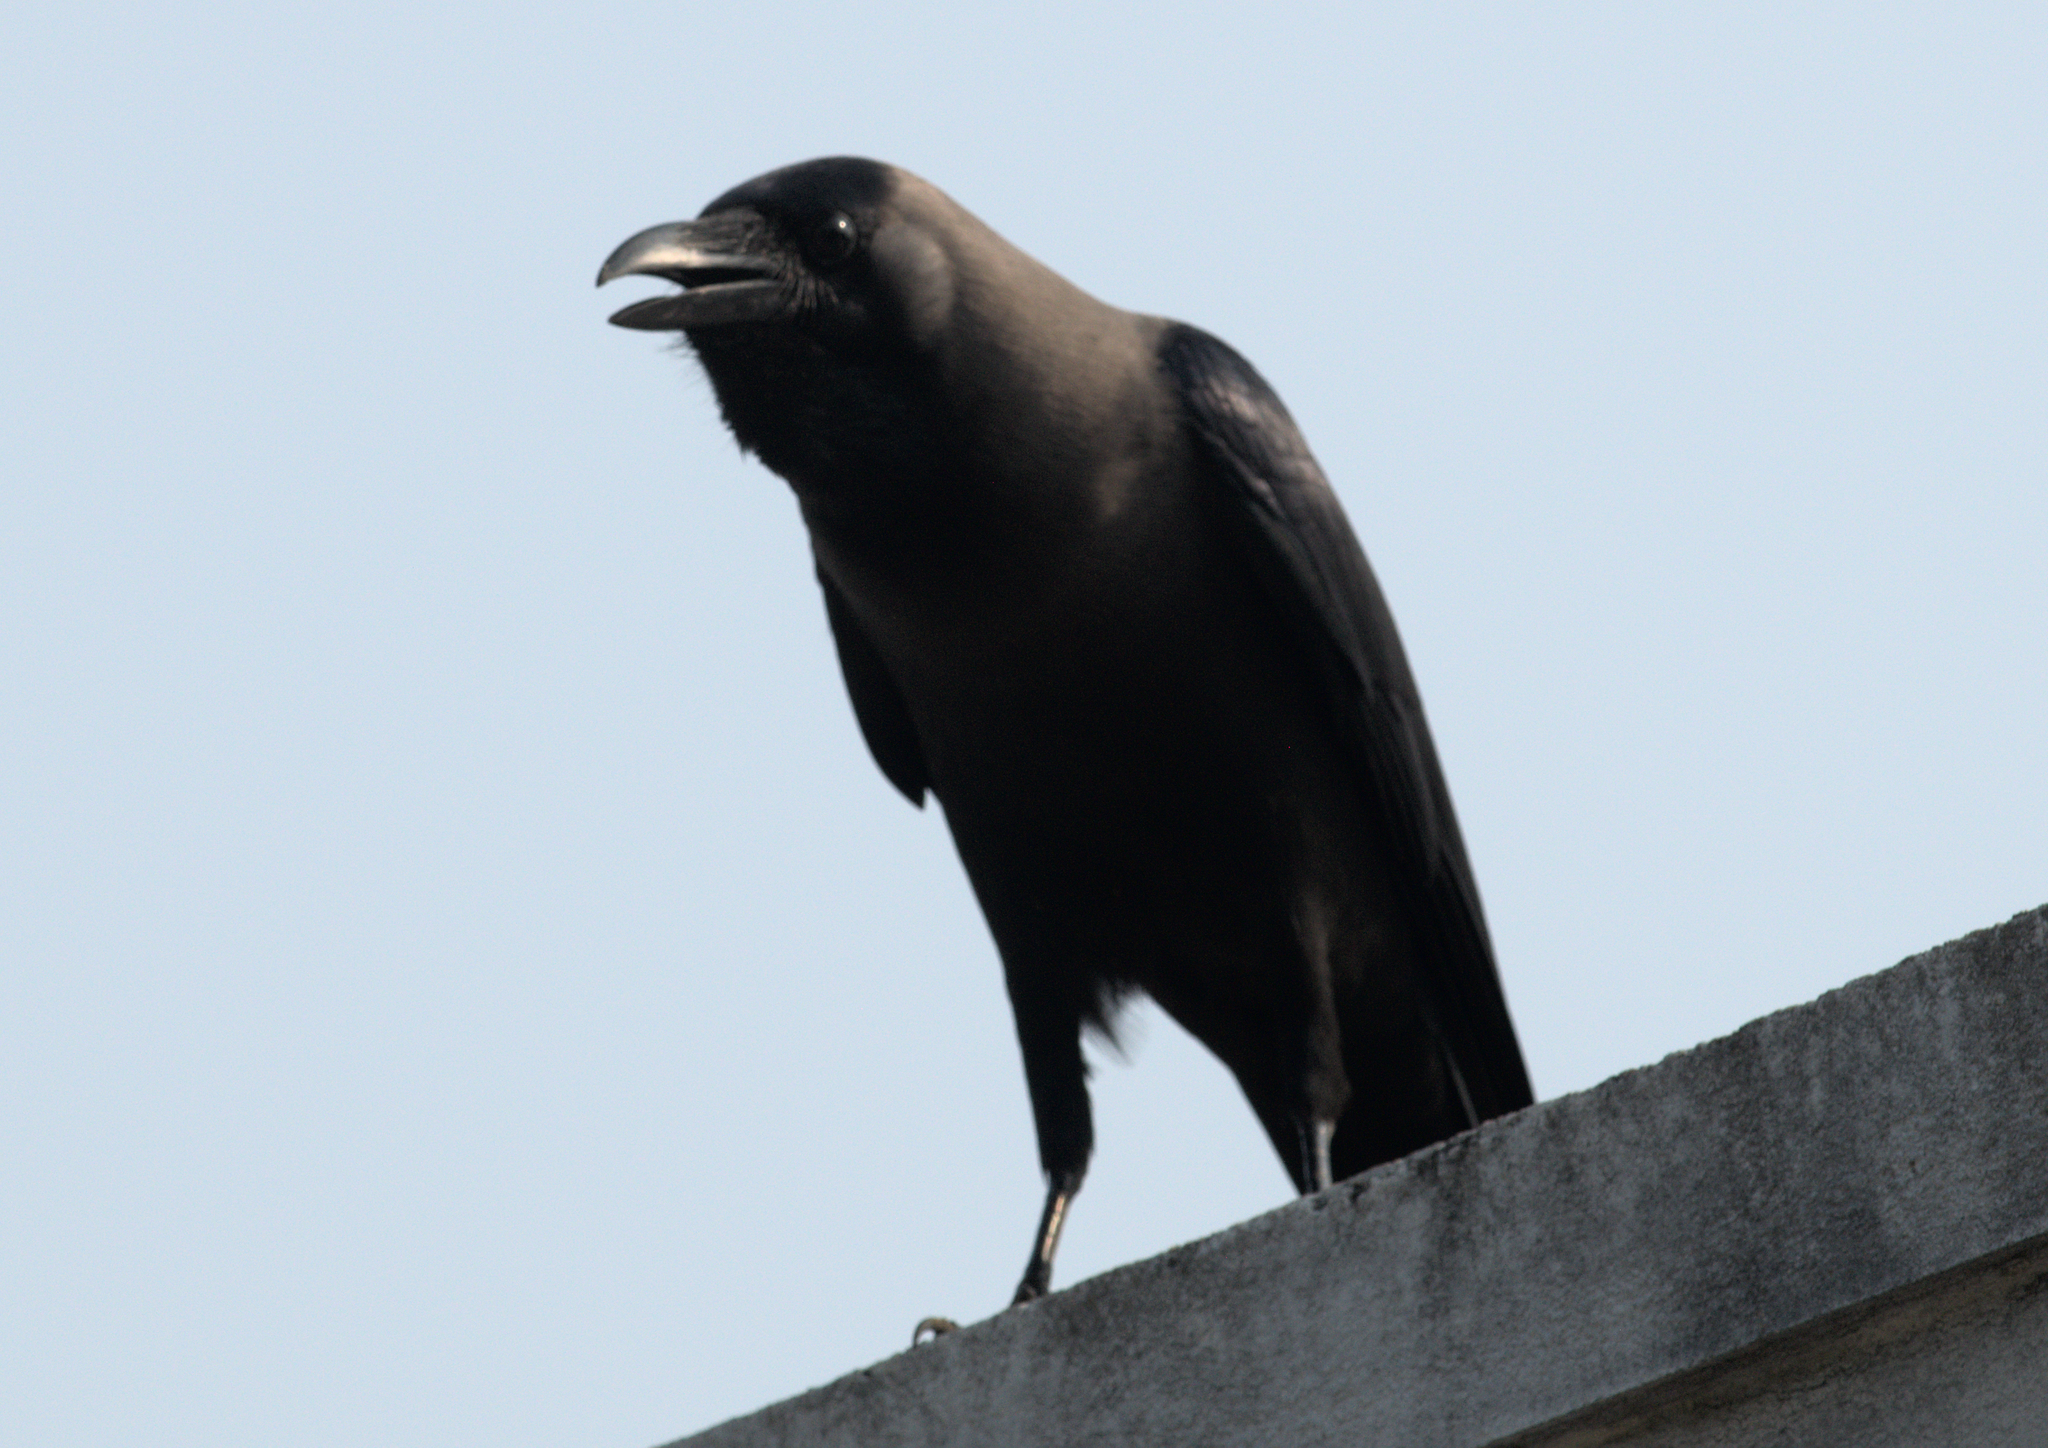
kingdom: Animalia
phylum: Chordata
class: Aves
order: Passeriformes
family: Corvidae
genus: Corvus
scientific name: Corvus splendens
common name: House crow
